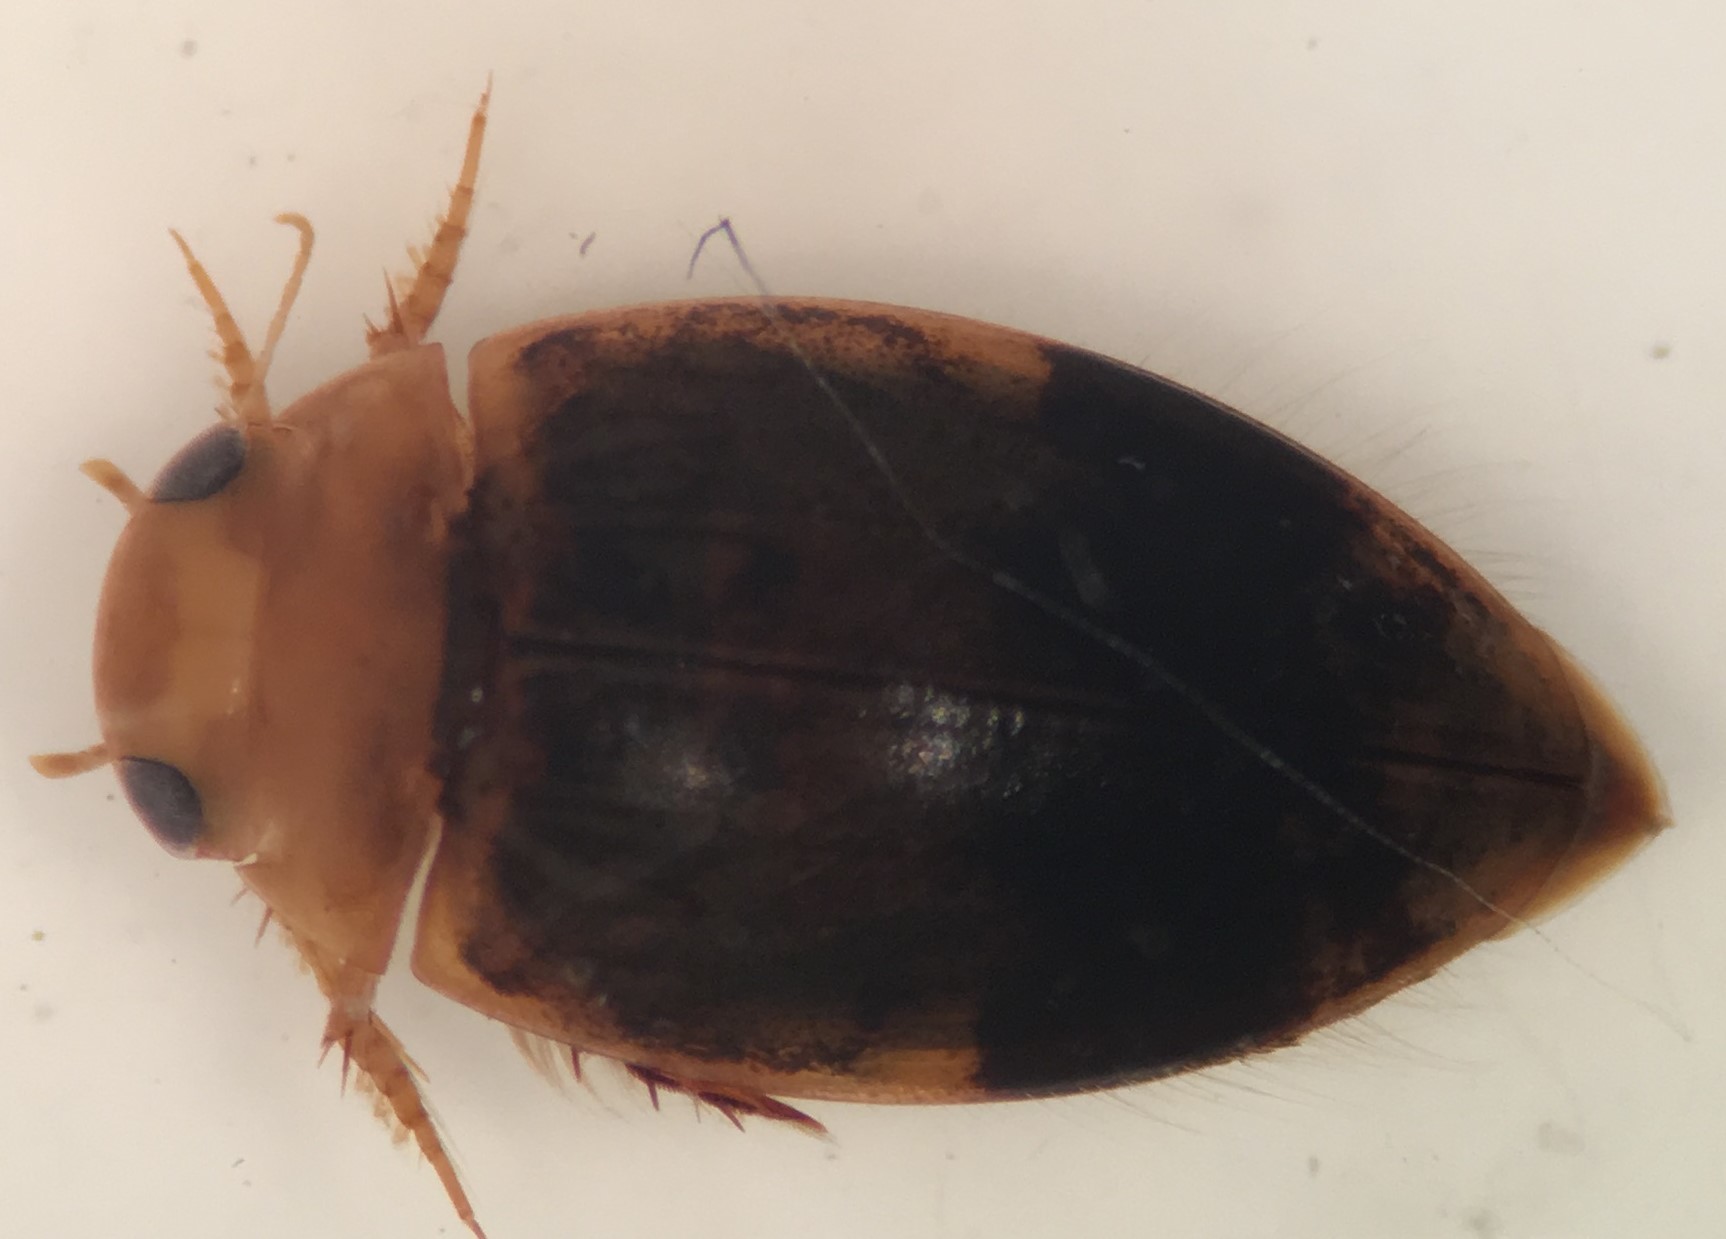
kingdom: Animalia
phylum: Arthropoda
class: Insecta
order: Coleoptera
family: Dytiscidae
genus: Laccophilus
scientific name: Laccophilus fasciatus
